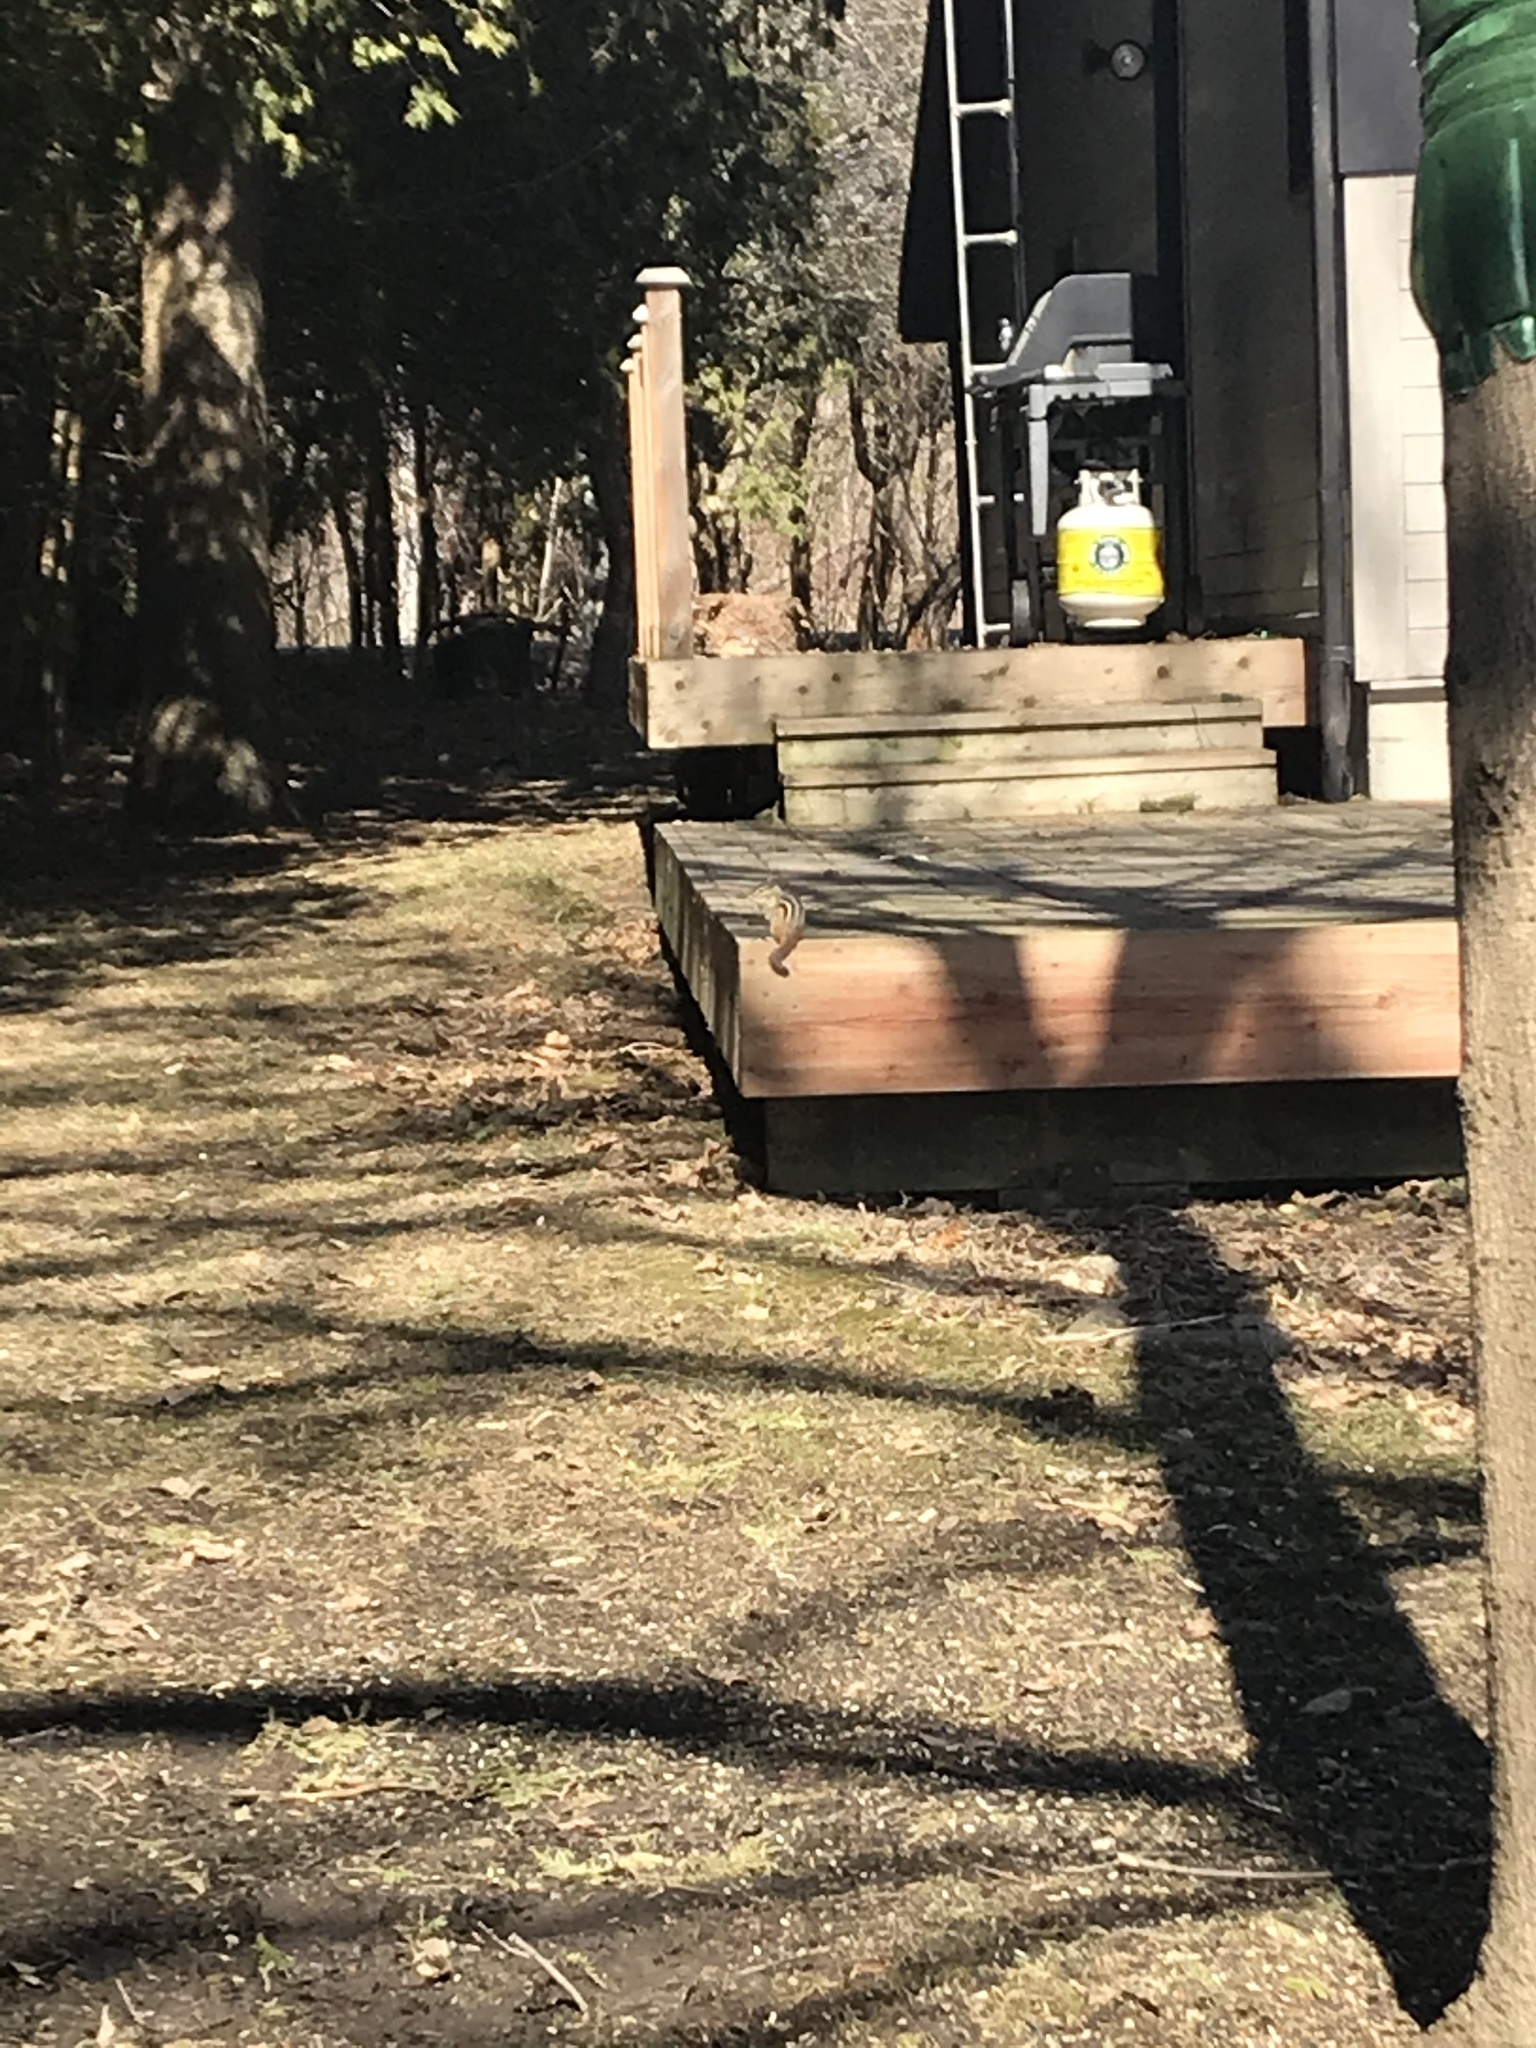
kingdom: Animalia
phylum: Chordata
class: Mammalia
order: Rodentia
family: Sciuridae
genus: Tamias
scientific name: Tamias striatus
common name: Eastern chipmunk
